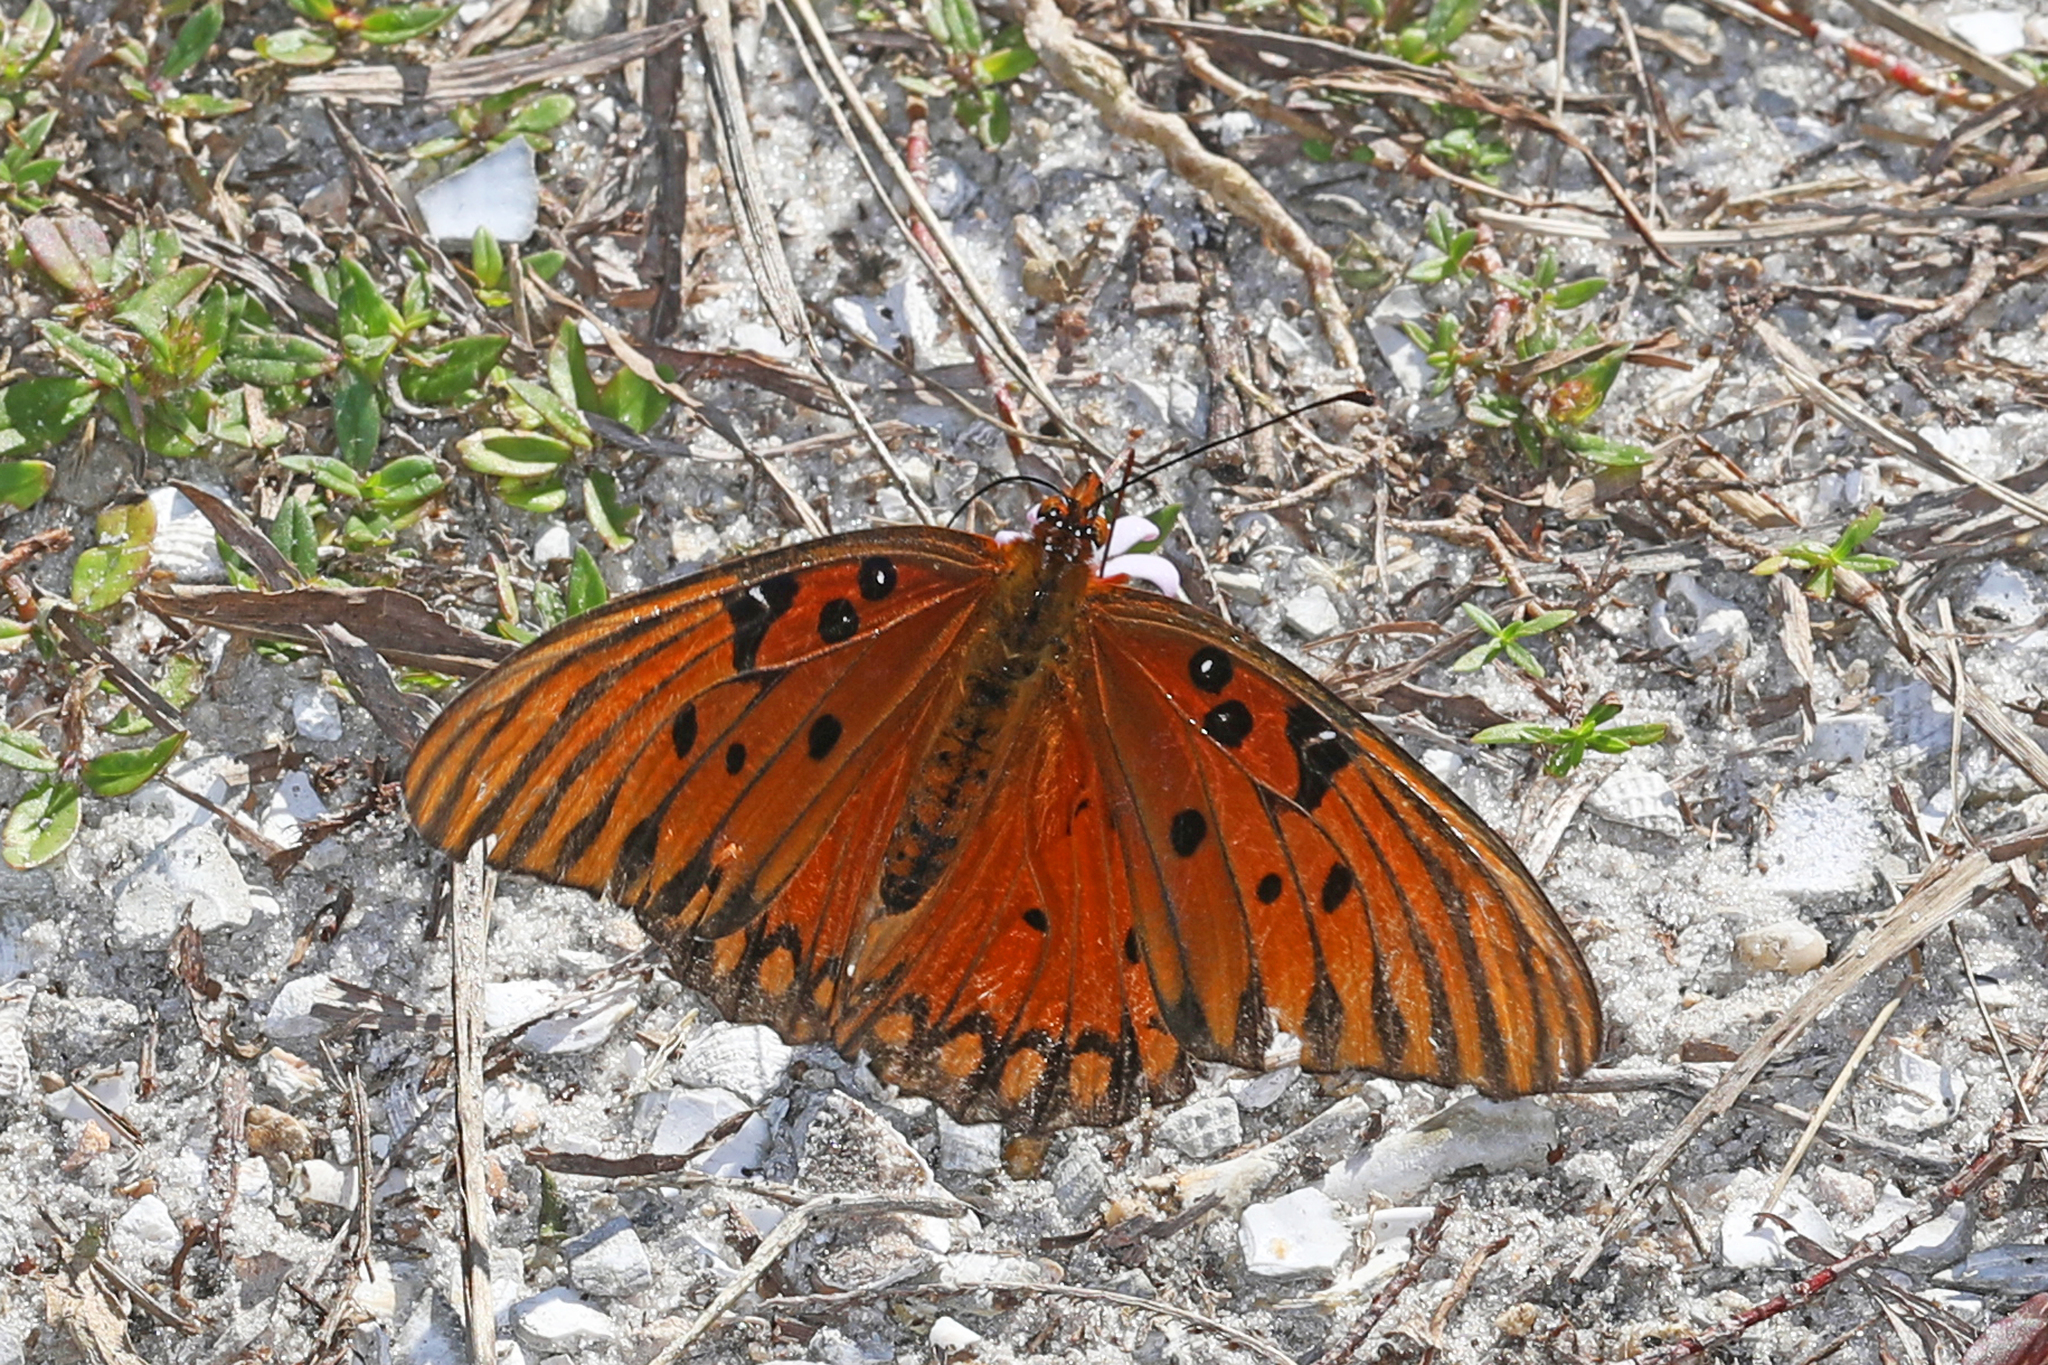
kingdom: Animalia
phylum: Arthropoda
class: Insecta
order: Lepidoptera
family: Nymphalidae
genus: Dione
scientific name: Dione vanillae
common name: Gulf fritillary
